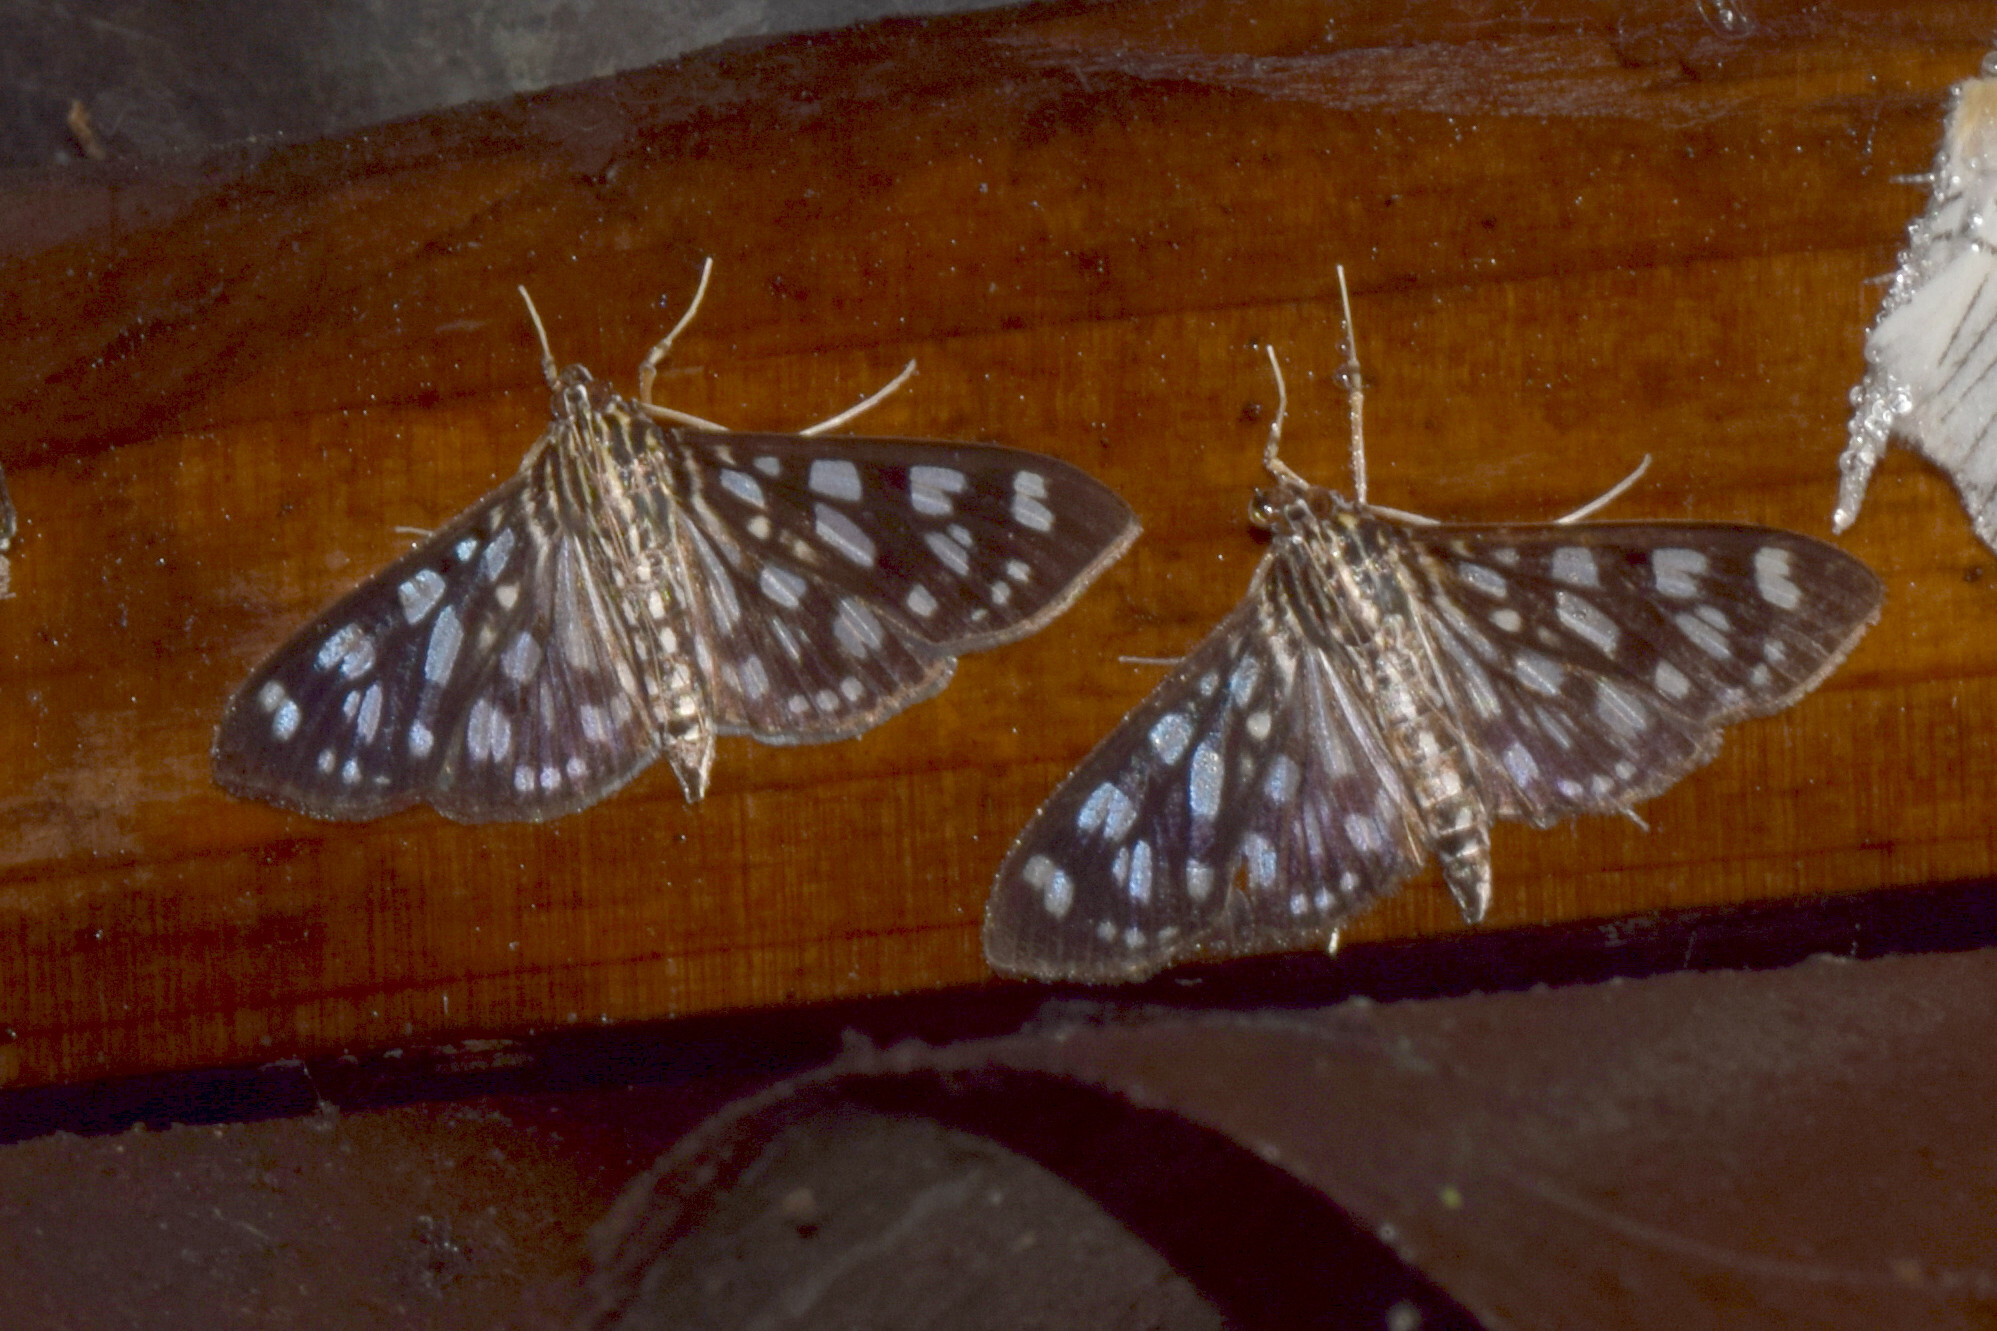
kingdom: Animalia
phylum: Arthropoda
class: Insecta
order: Lepidoptera
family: Crambidae
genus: Pygospila
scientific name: Pygospila tyres
